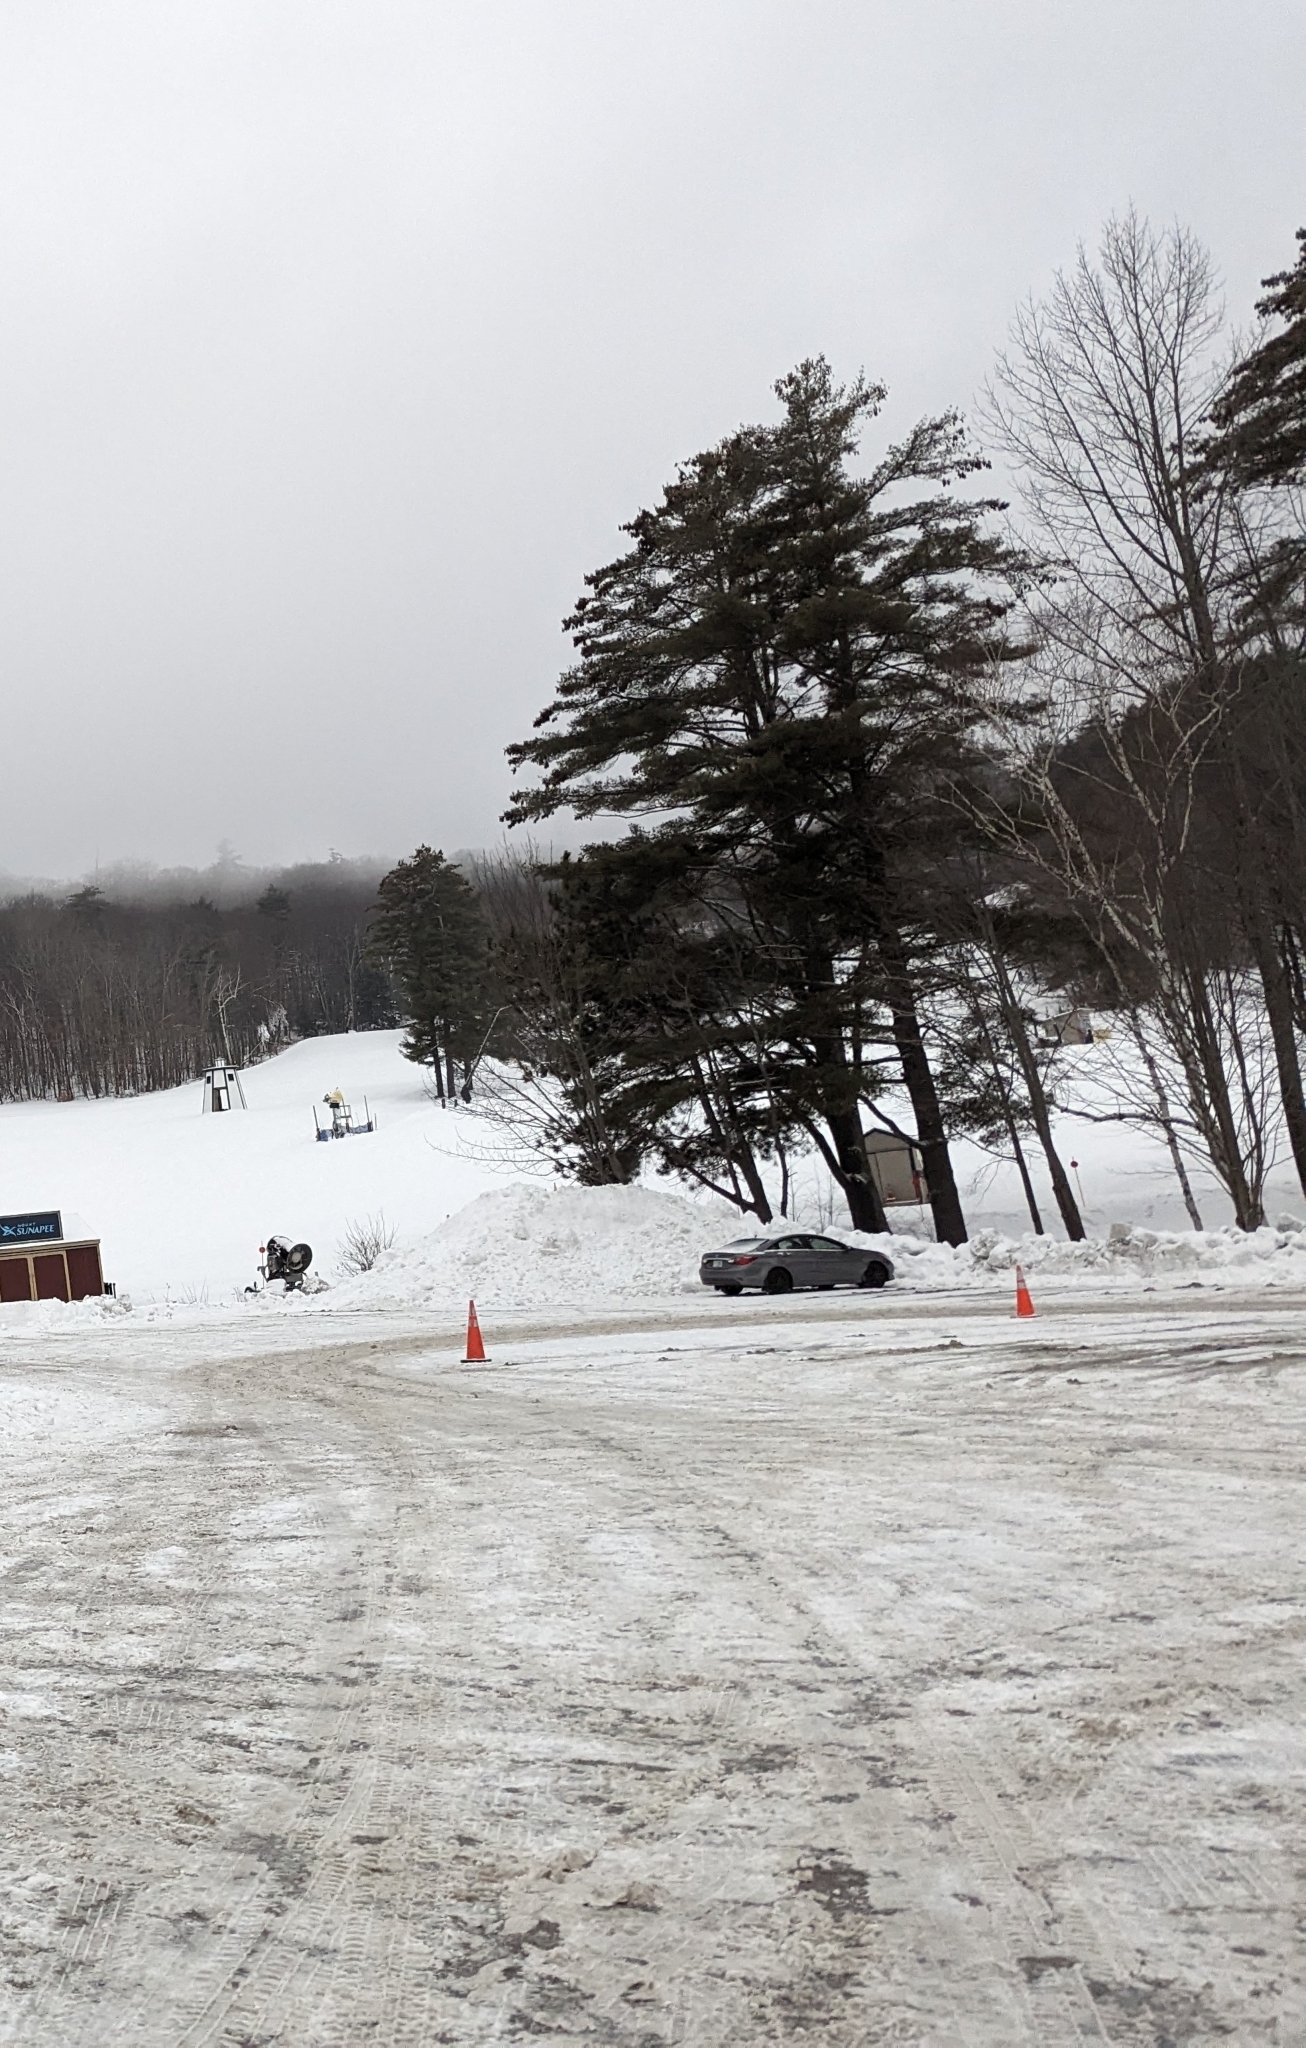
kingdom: Plantae
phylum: Tracheophyta
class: Pinopsida
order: Pinales
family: Pinaceae
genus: Pinus
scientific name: Pinus strobus
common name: Weymouth pine
